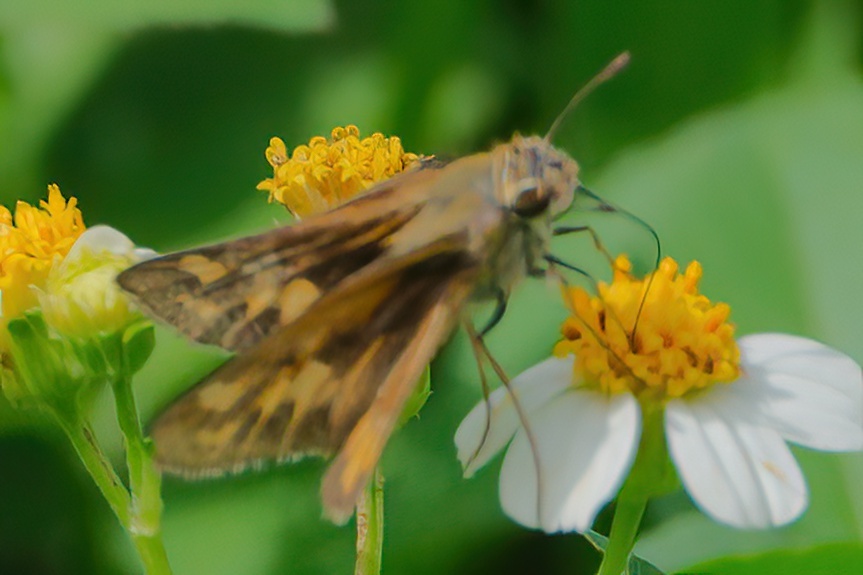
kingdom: Animalia
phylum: Arthropoda
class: Insecta
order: Lepidoptera
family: Hesperiidae
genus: Hylephila
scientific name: Hylephila phyleus
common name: Fiery skipper
